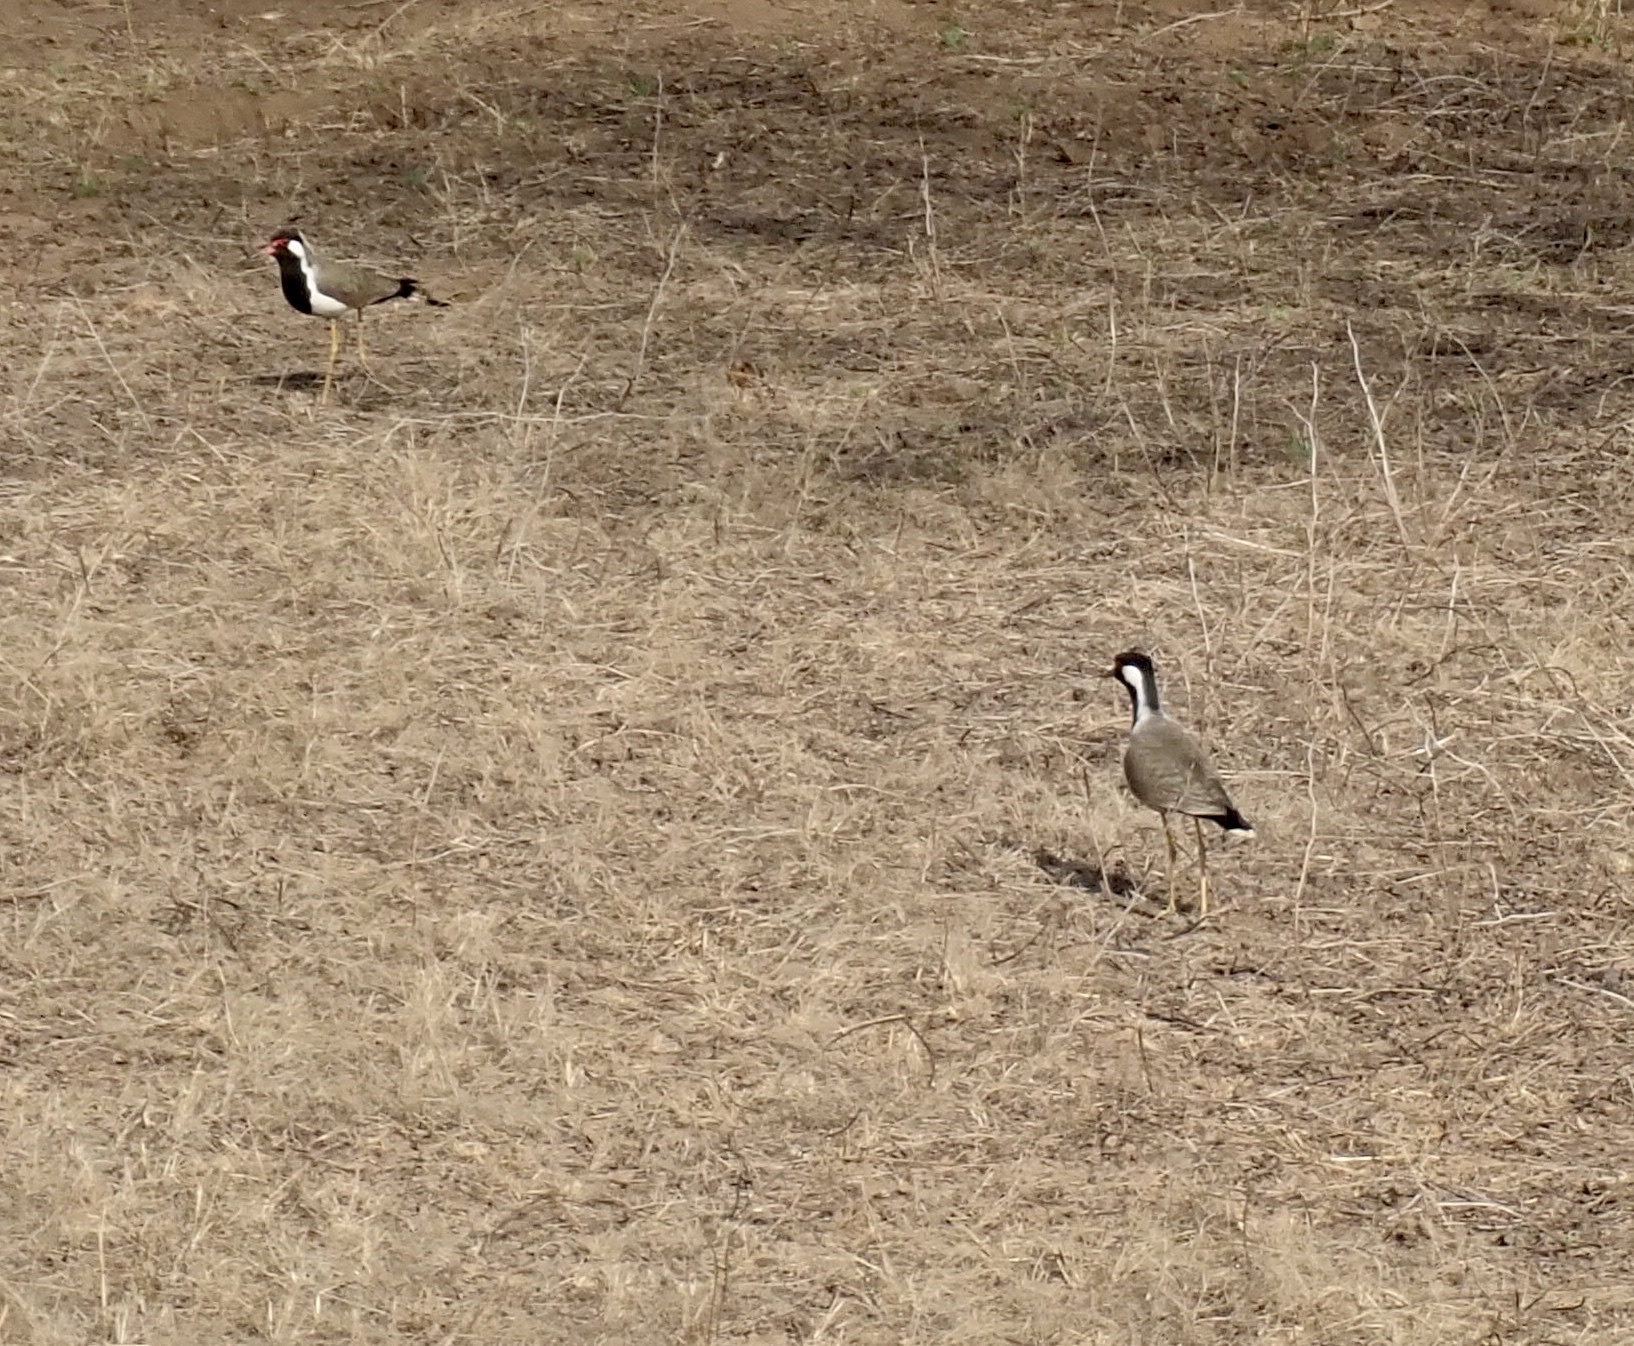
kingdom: Animalia
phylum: Chordata
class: Aves
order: Charadriiformes
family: Charadriidae
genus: Vanellus
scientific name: Vanellus indicus
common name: Red-wattled lapwing
